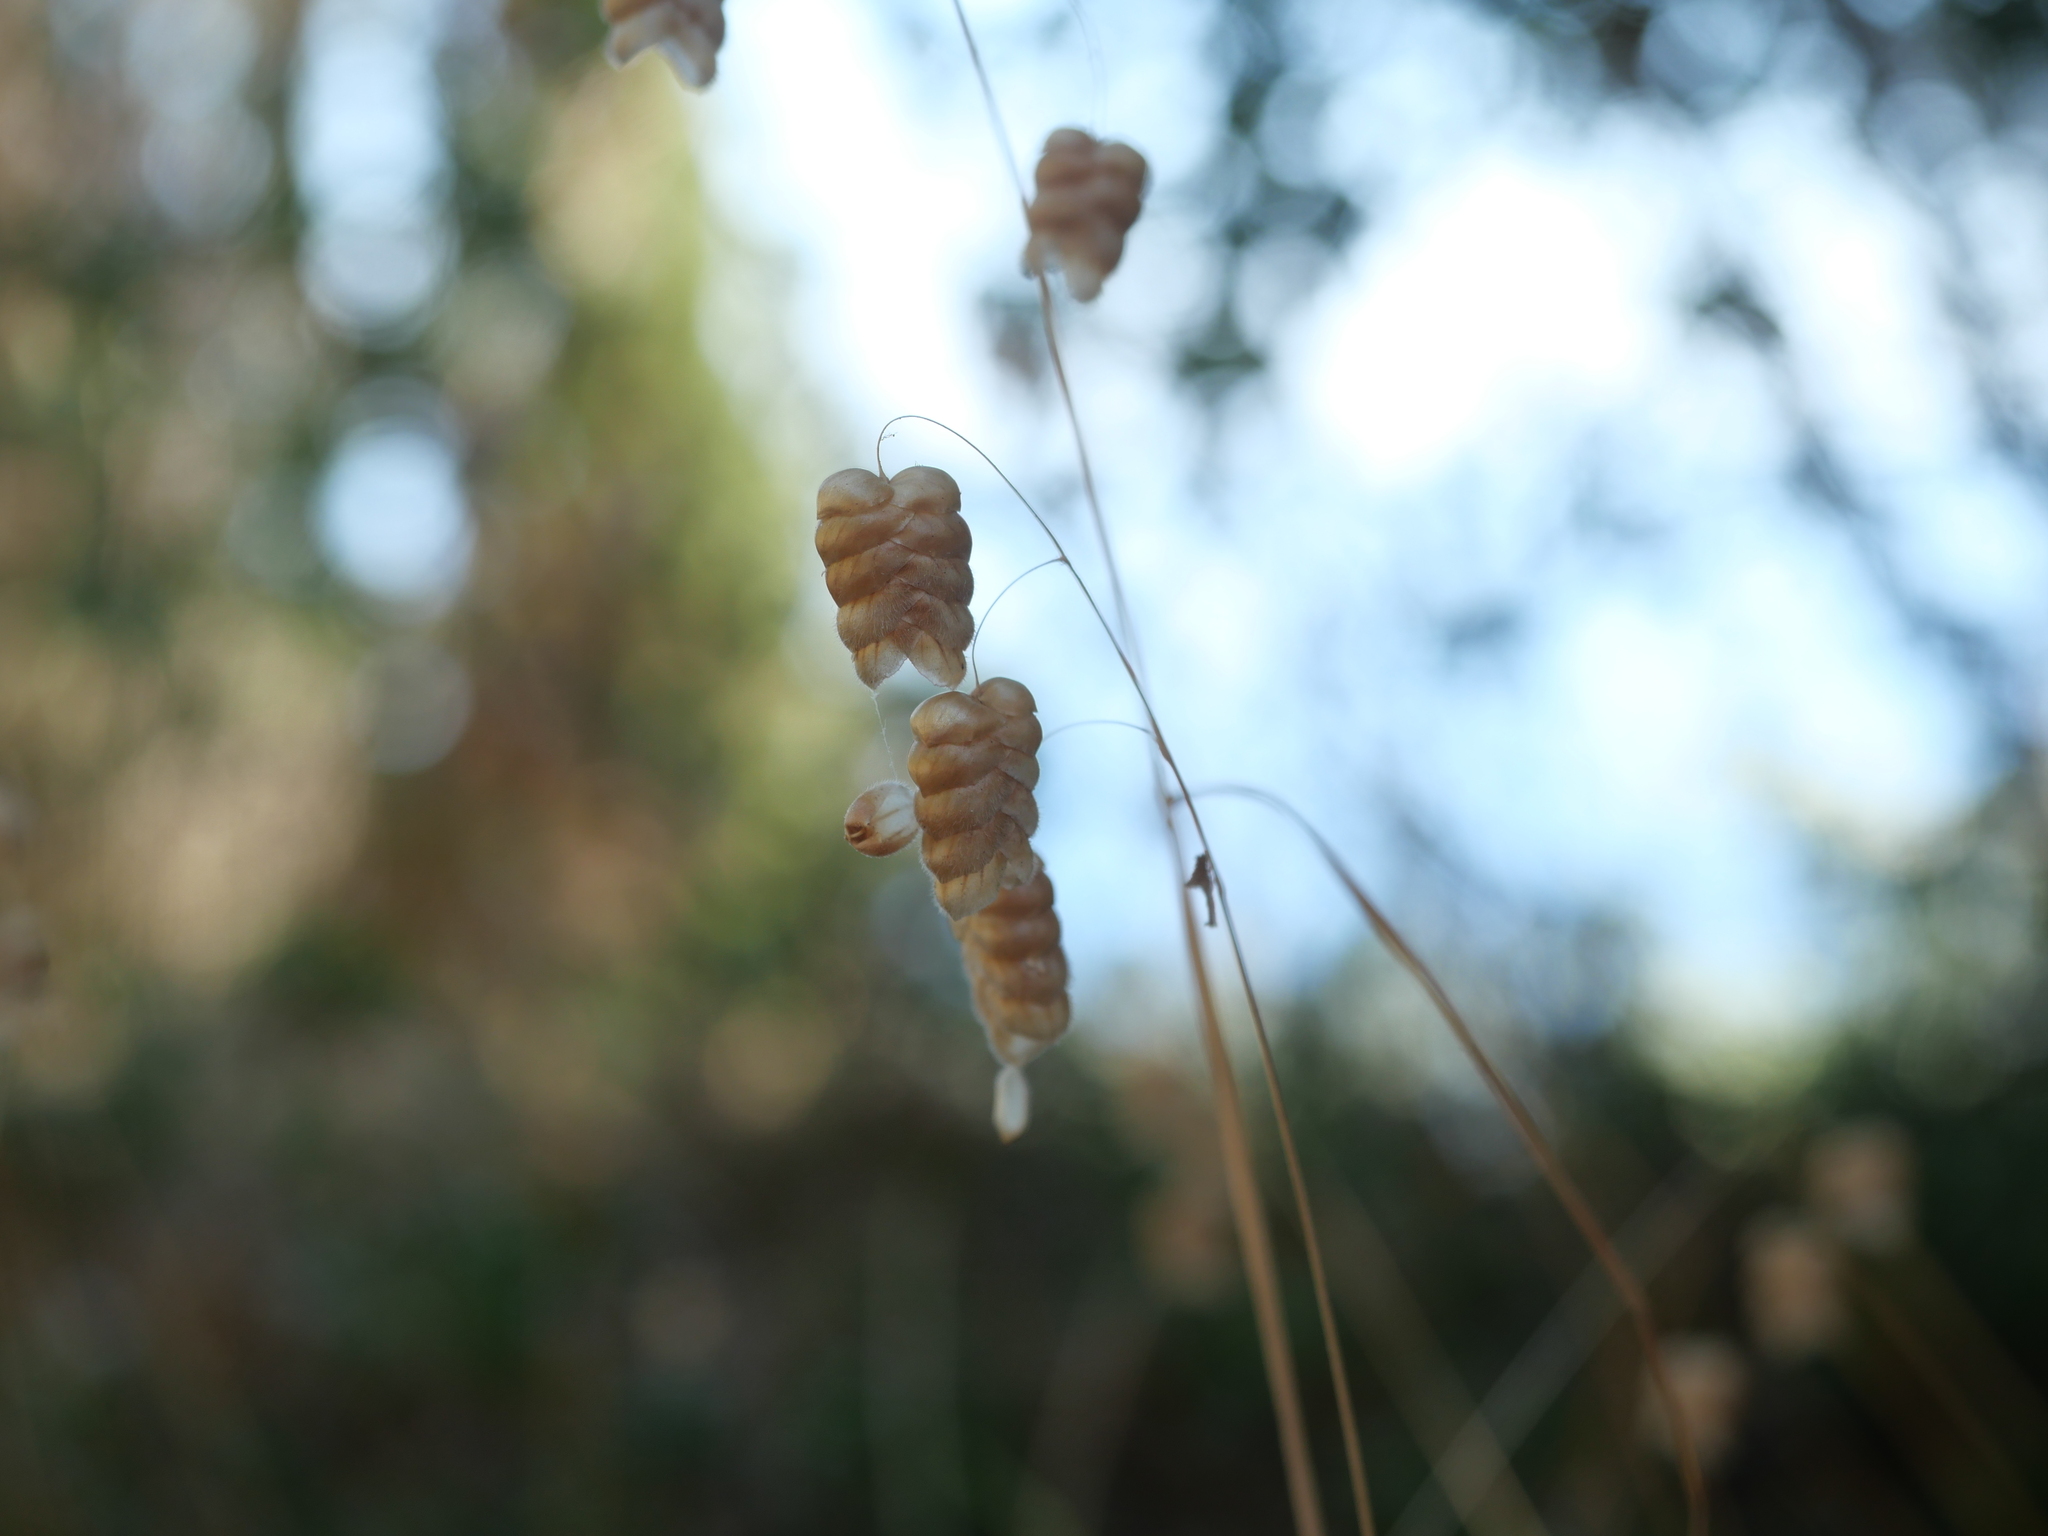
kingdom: Plantae
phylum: Tracheophyta
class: Liliopsida
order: Poales
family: Poaceae
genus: Briza
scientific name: Briza maxima
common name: Big quakinggrass
